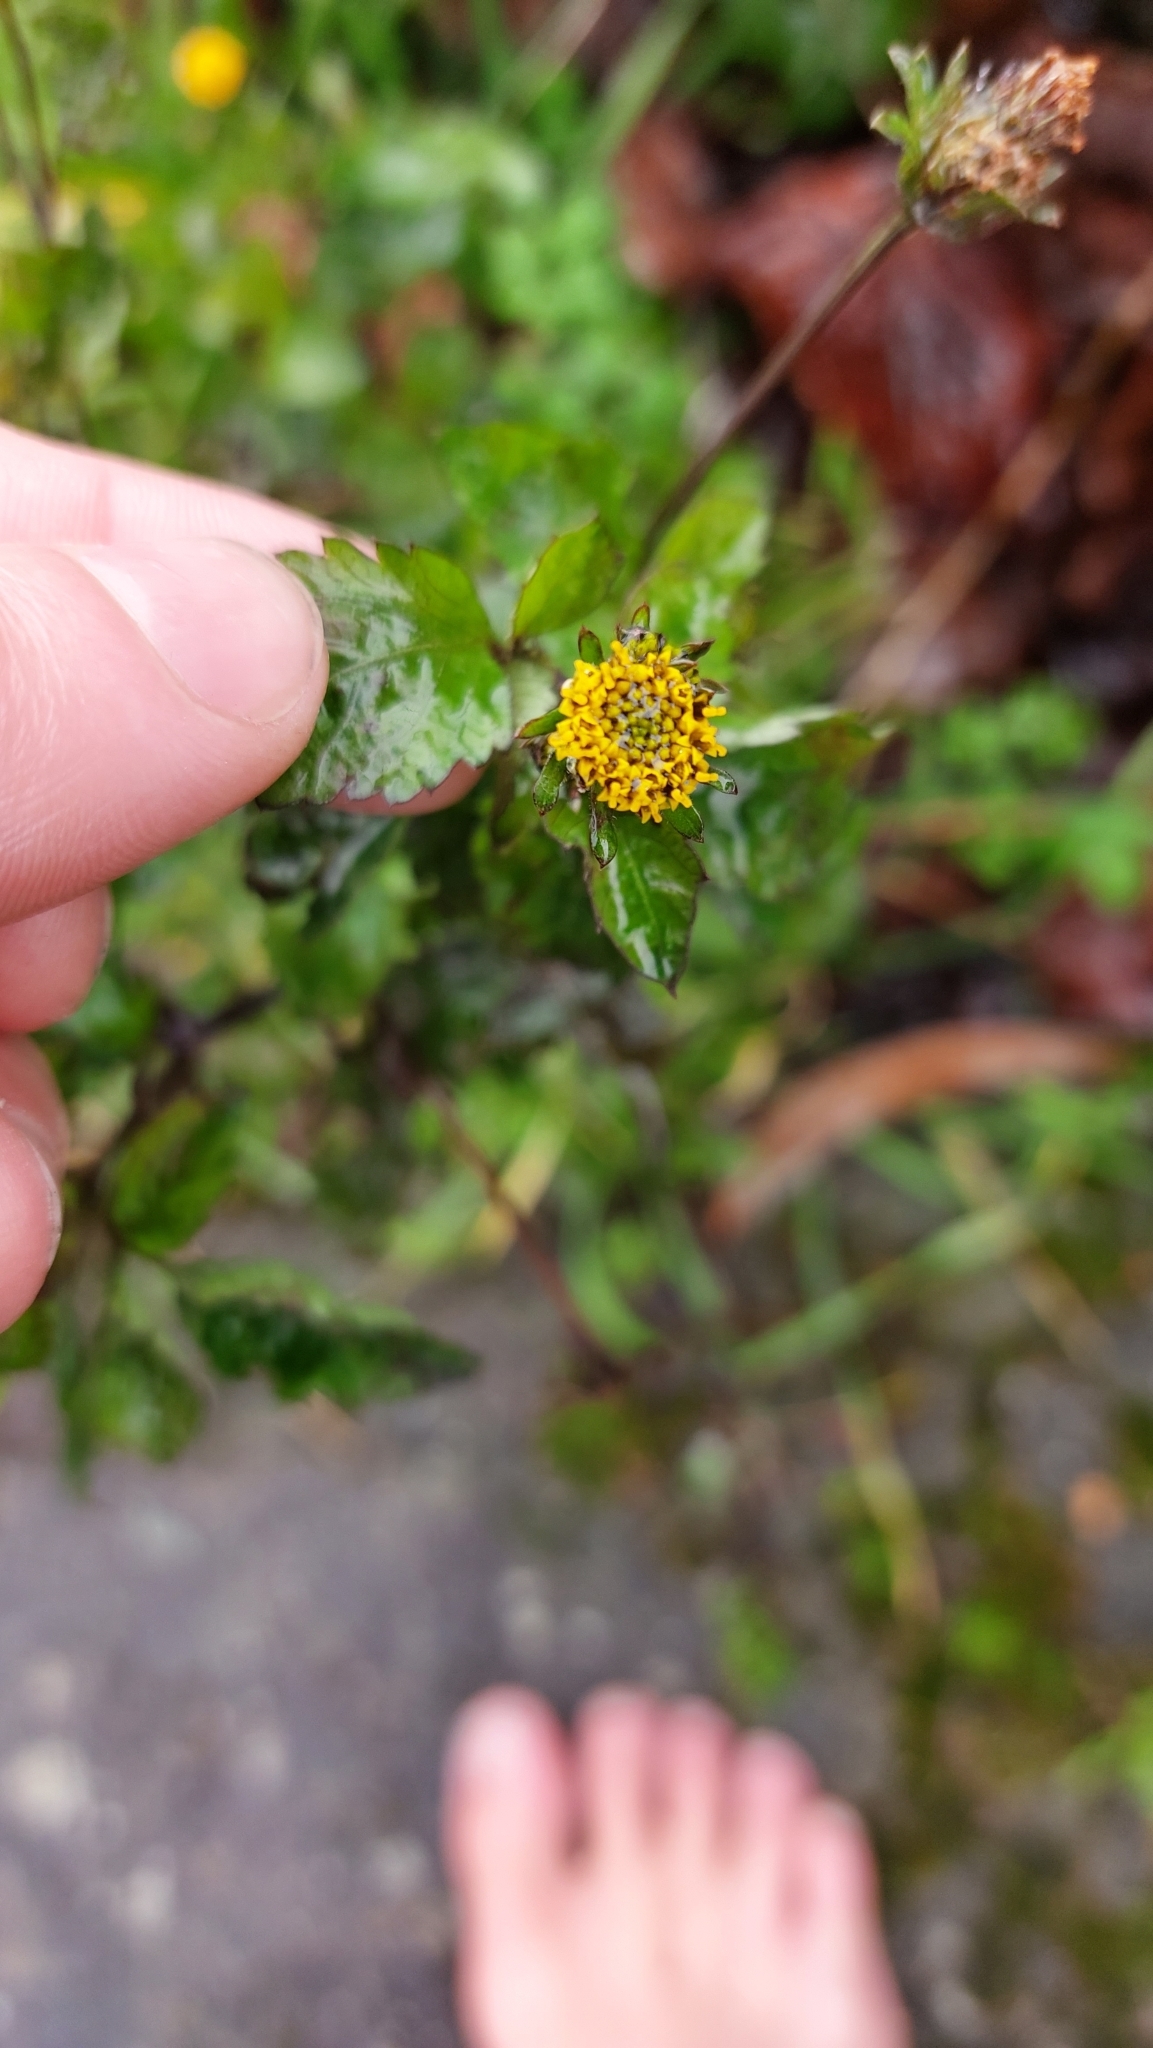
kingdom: Plantae
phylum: Tracheophyta
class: Magnoliopsida
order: Asterales
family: Asteraceae
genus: Bidens
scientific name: Bidens pilosa
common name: Black-jack
